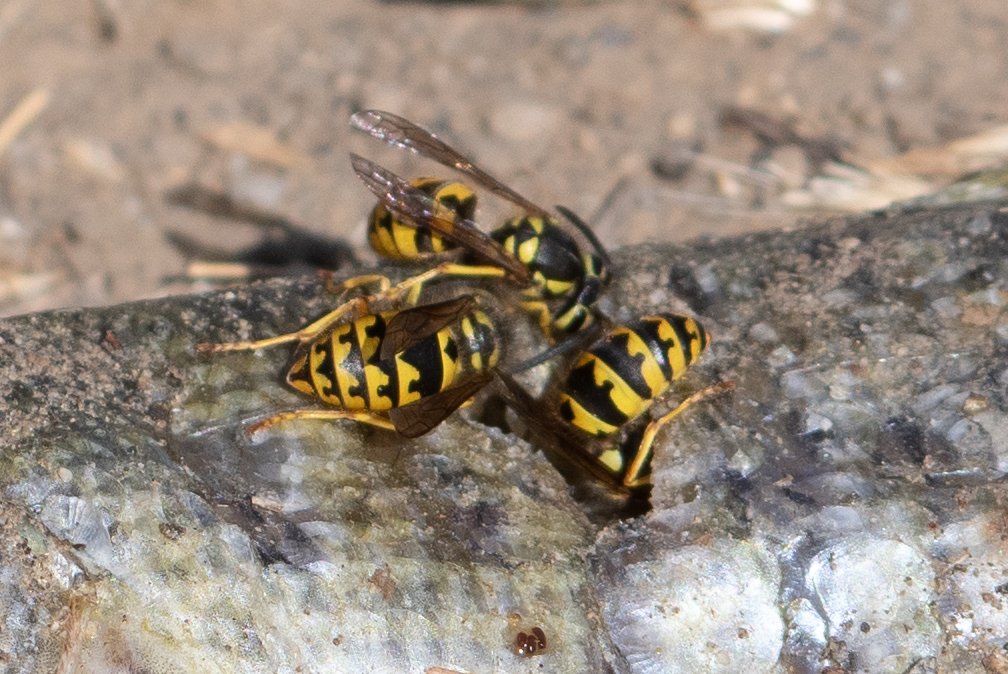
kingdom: Animalia
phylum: Arthropoda
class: Insecta
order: Hymenoptera
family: Vespidae
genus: Vespula
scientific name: Vespula pensylvanica
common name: Western yellowjacket
